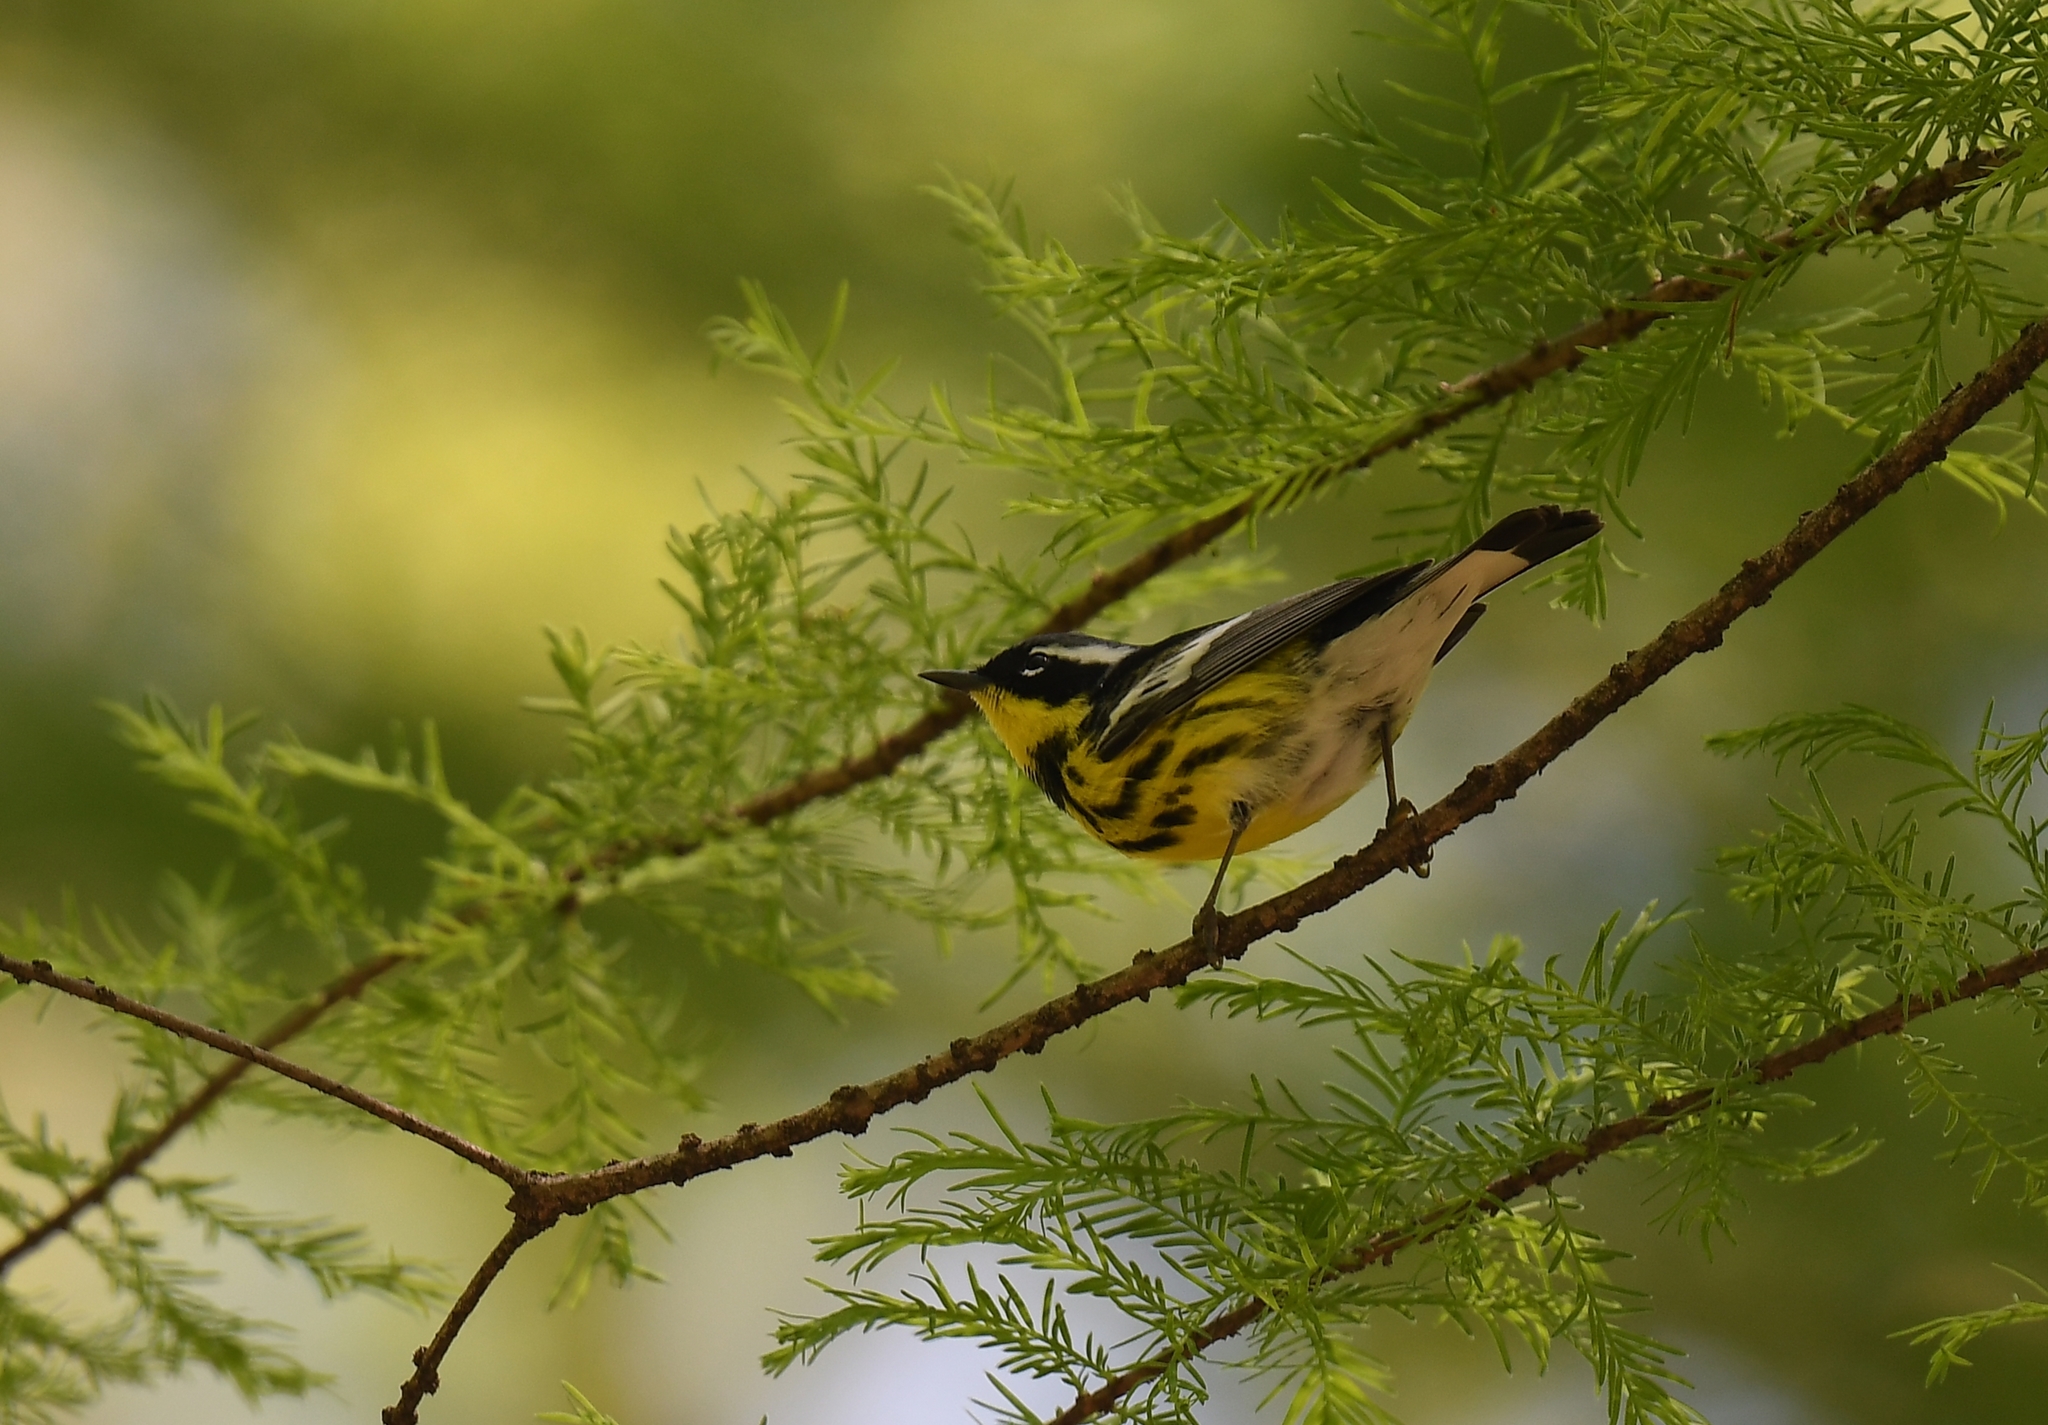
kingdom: Animalia
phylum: Chordata
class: Aves
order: Passeriformes
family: Parulidae
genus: Setophaga
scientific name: Setophaga magnolia
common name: Magnolia warbler
